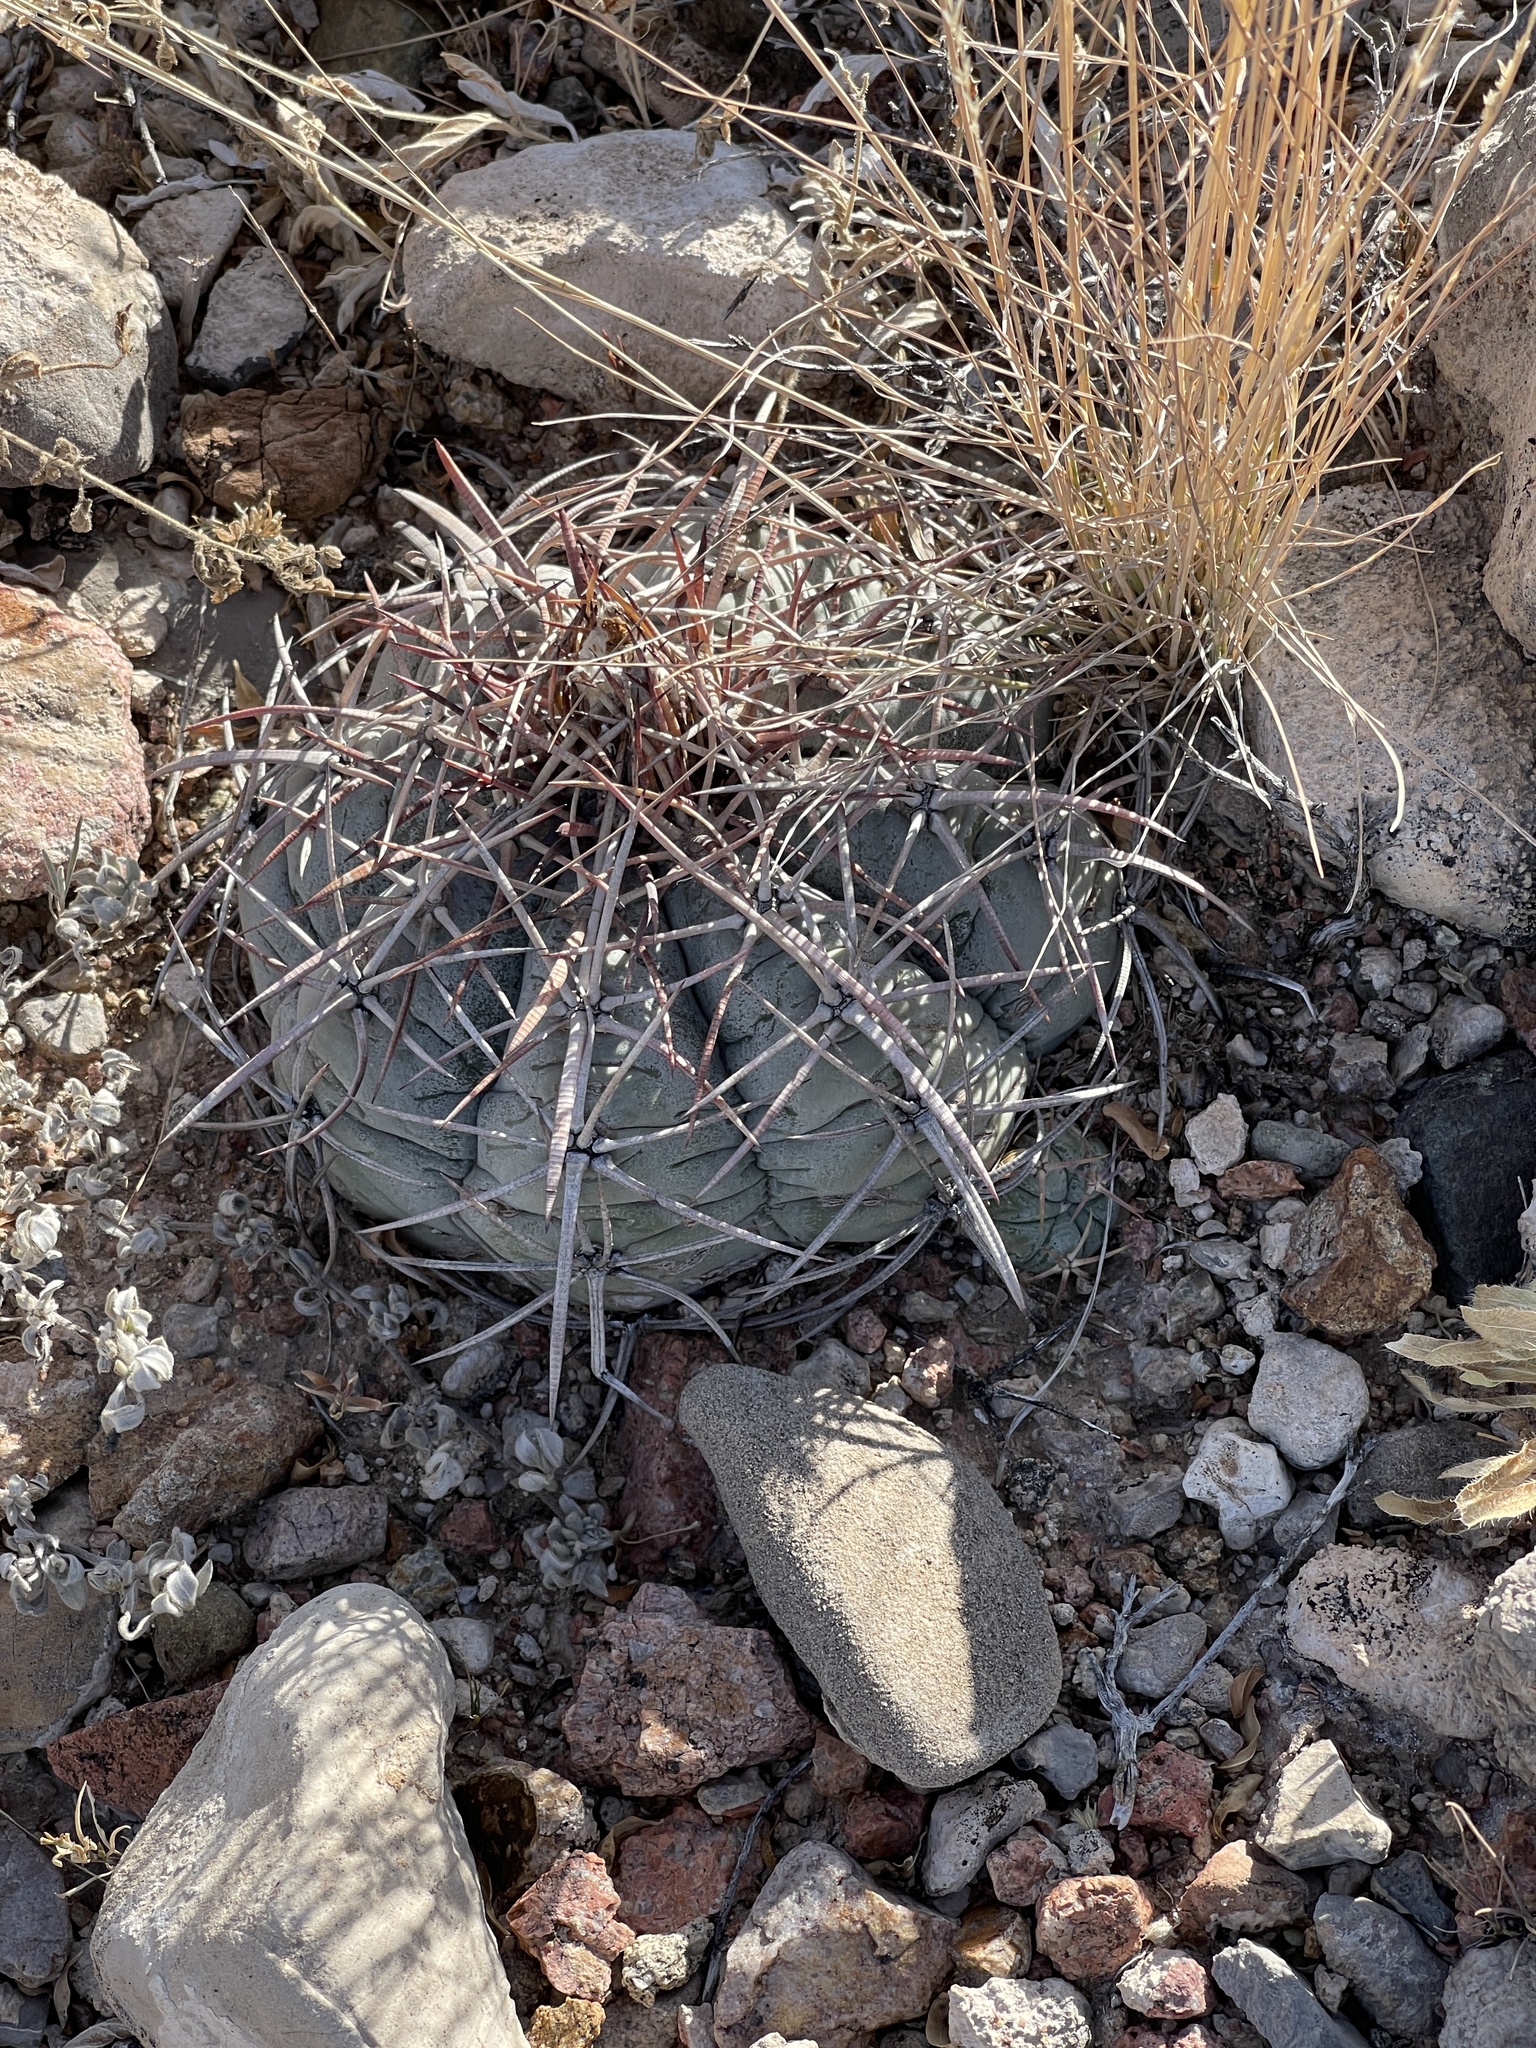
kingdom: Plantae
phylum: Tracheophyta
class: Magnoliopsida
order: Caryophyllales
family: Cactaceae
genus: Echinocactus
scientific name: Echinocactus horizonthalonius
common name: Devilshead
